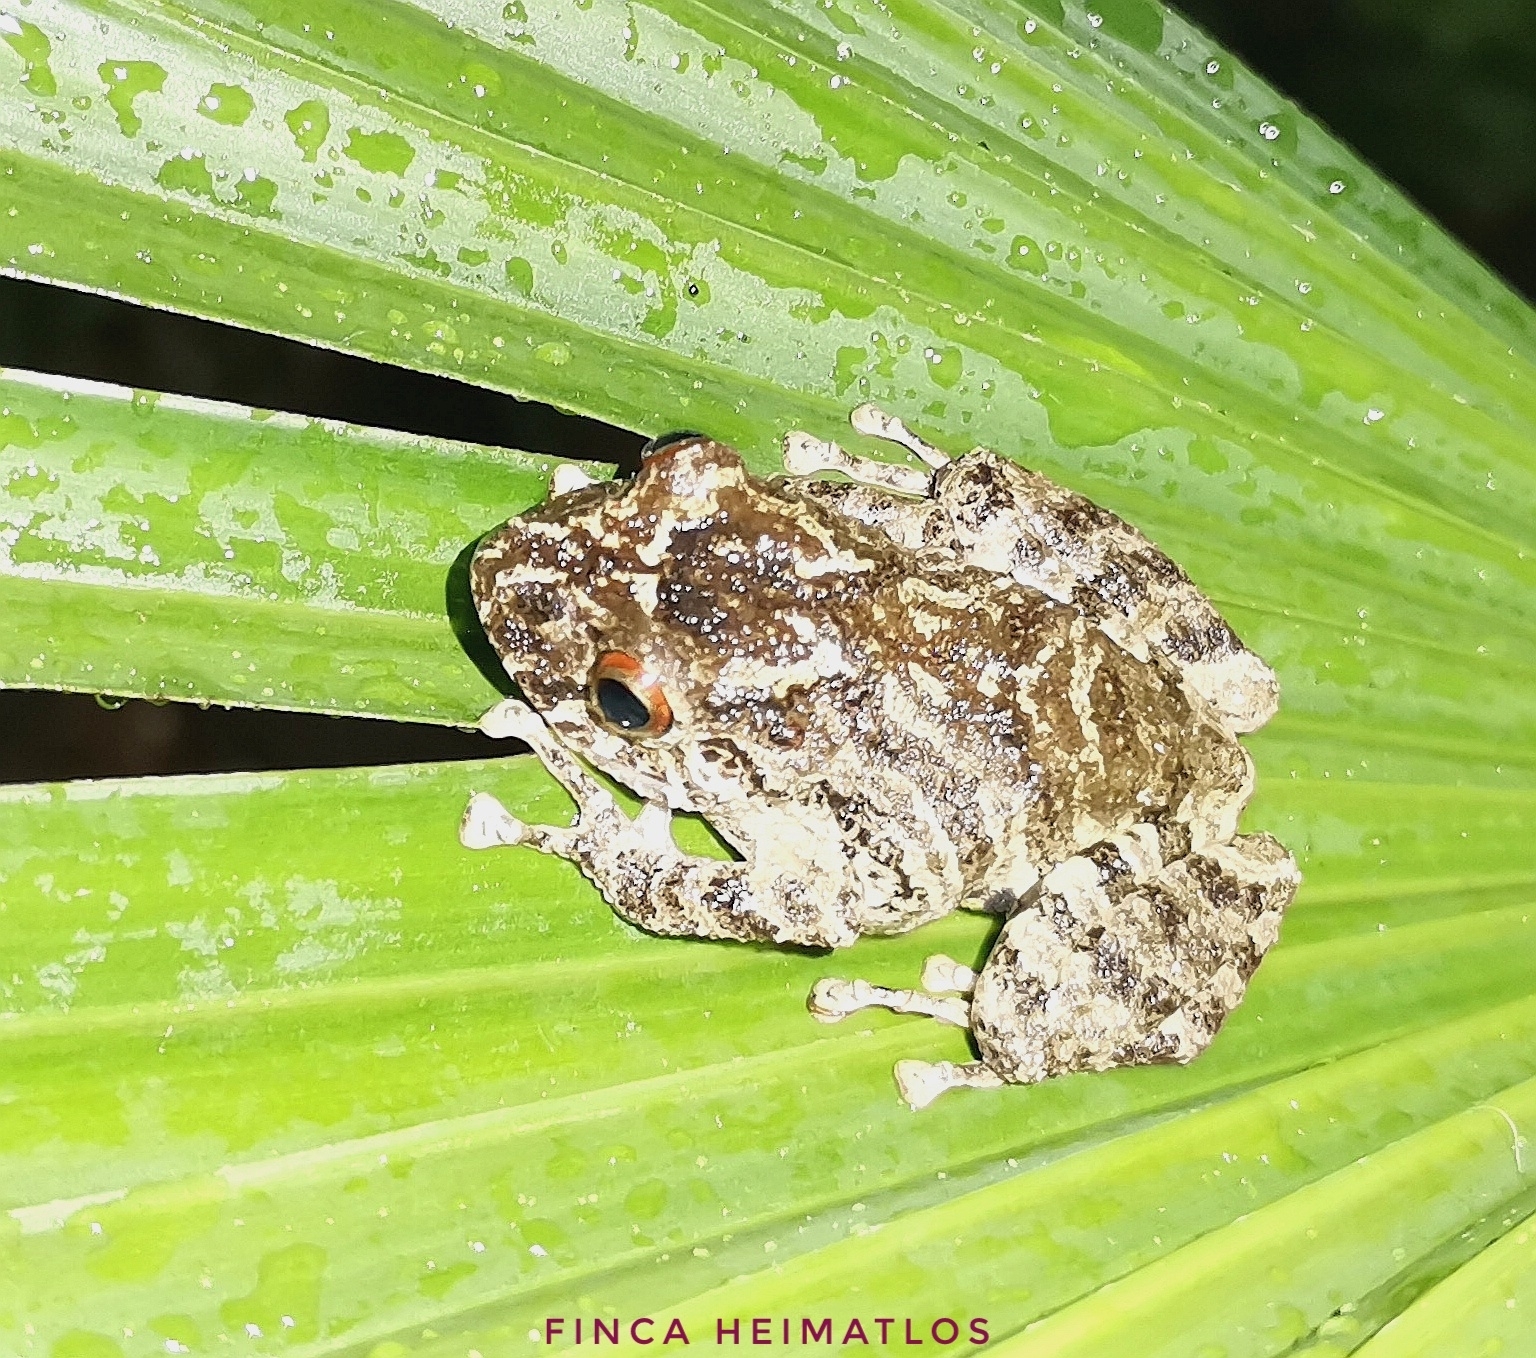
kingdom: Animalia
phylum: Chordata
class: Amphibia
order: Anura
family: Craugastoridae
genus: Pristimantis
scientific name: Pristimantis diadematus
